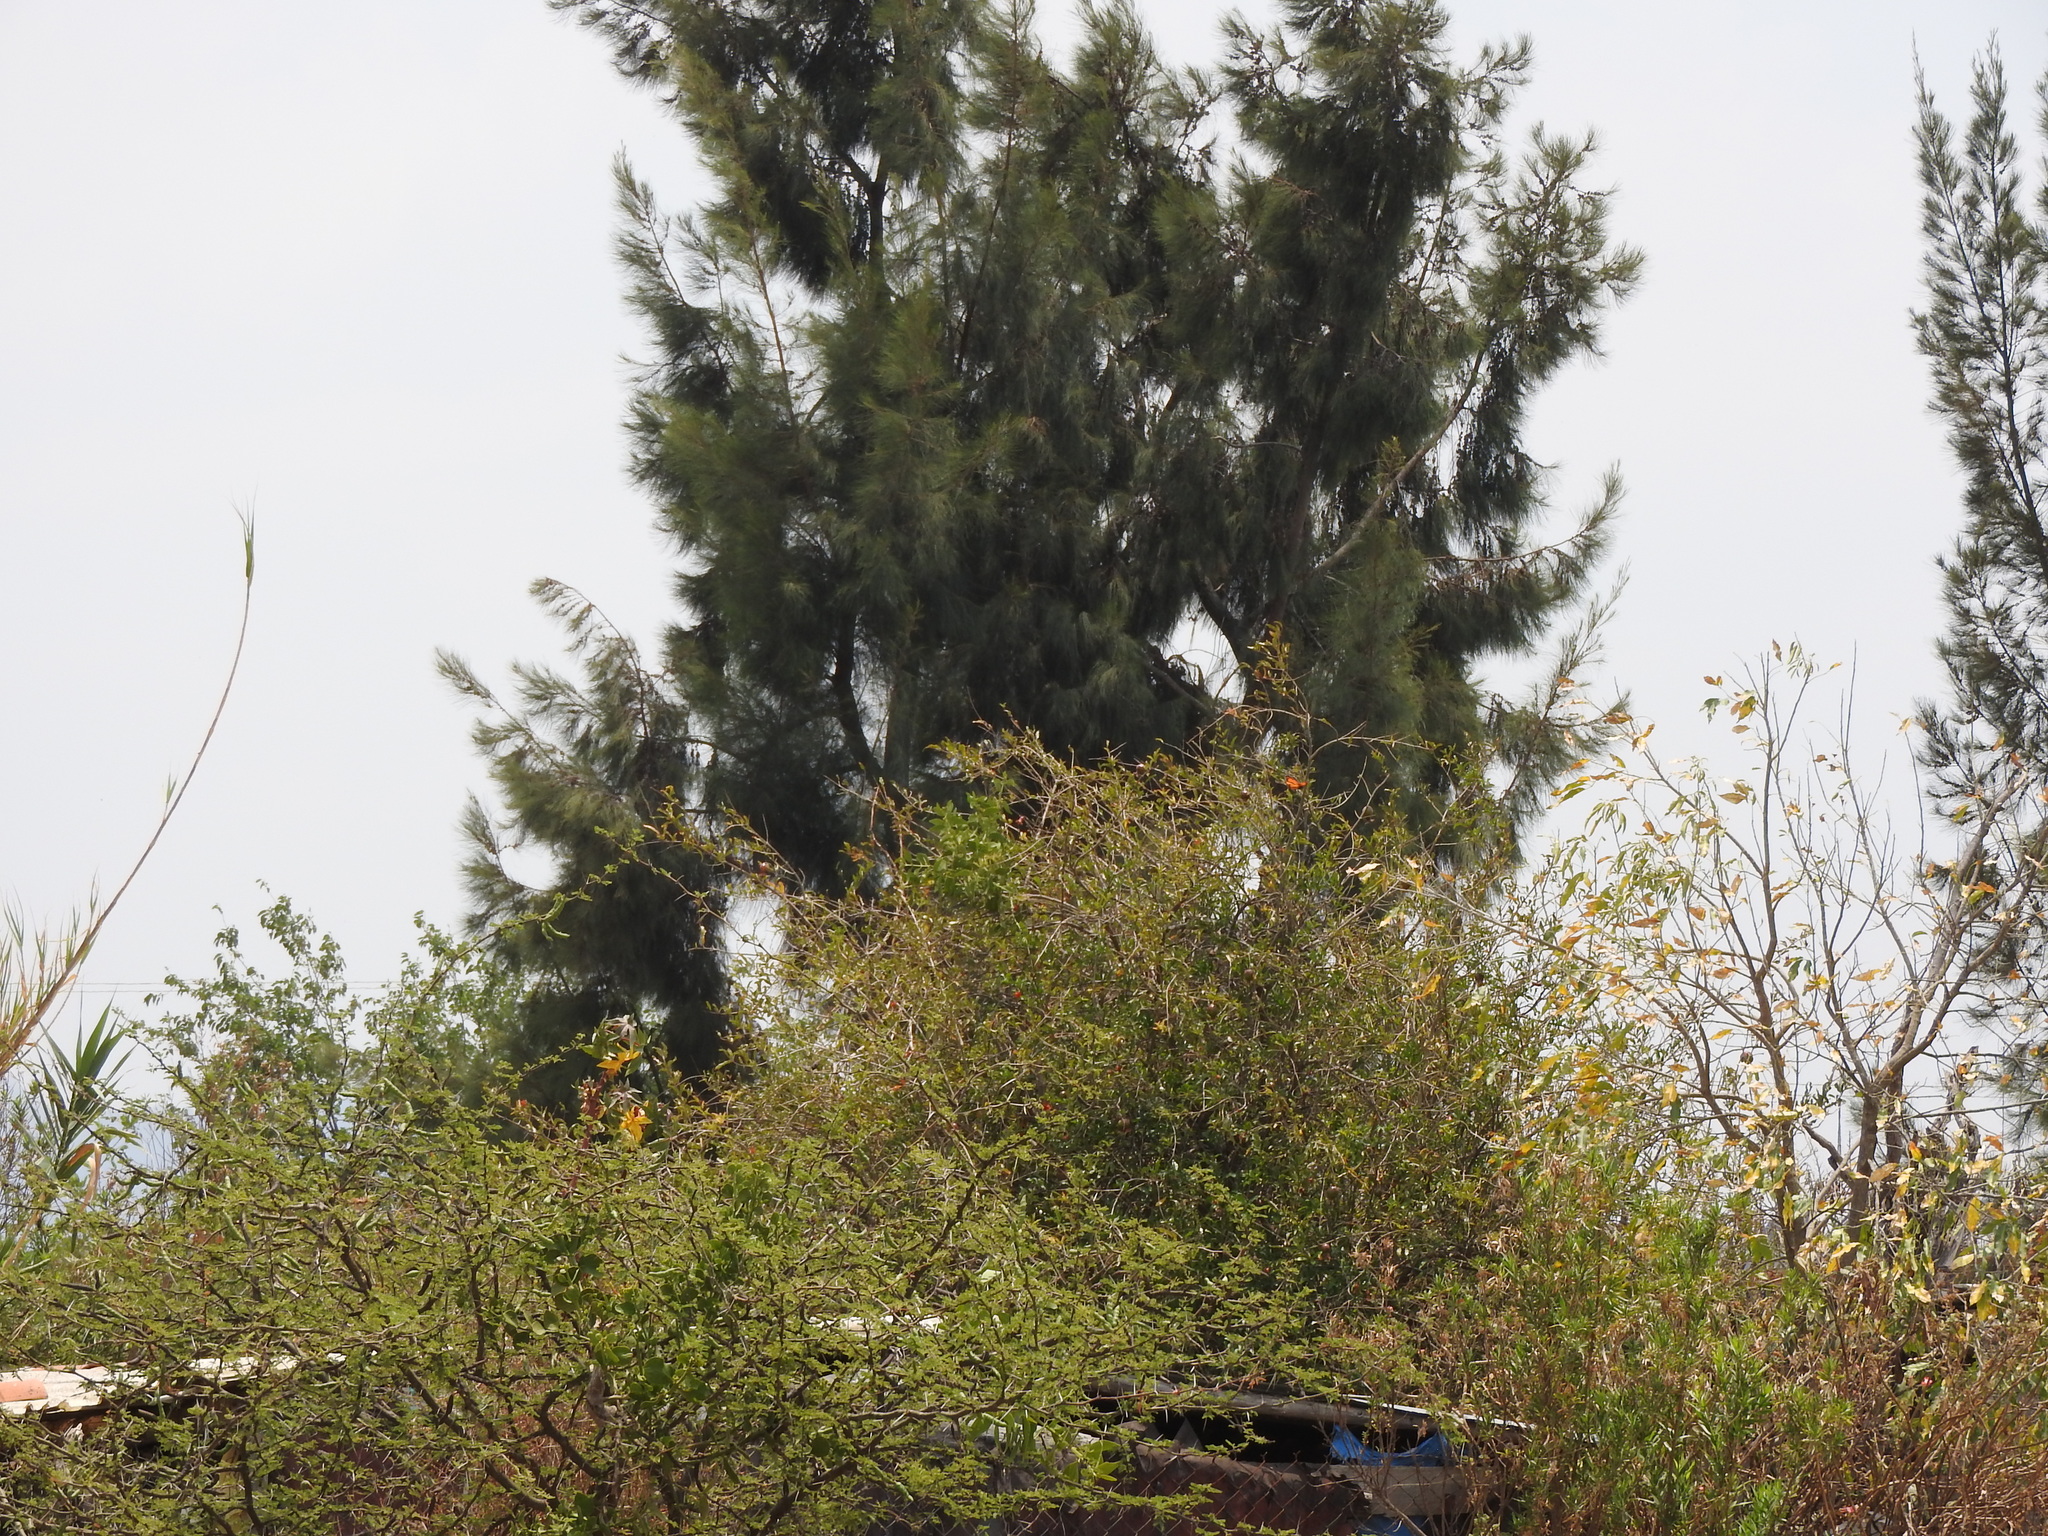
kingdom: Plantae
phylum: Tracheophyta
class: Magnoliopsida
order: Fagales
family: Casuarinaceae
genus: Casuarina
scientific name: Casuarina equisetifolia
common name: Beach sheoak
